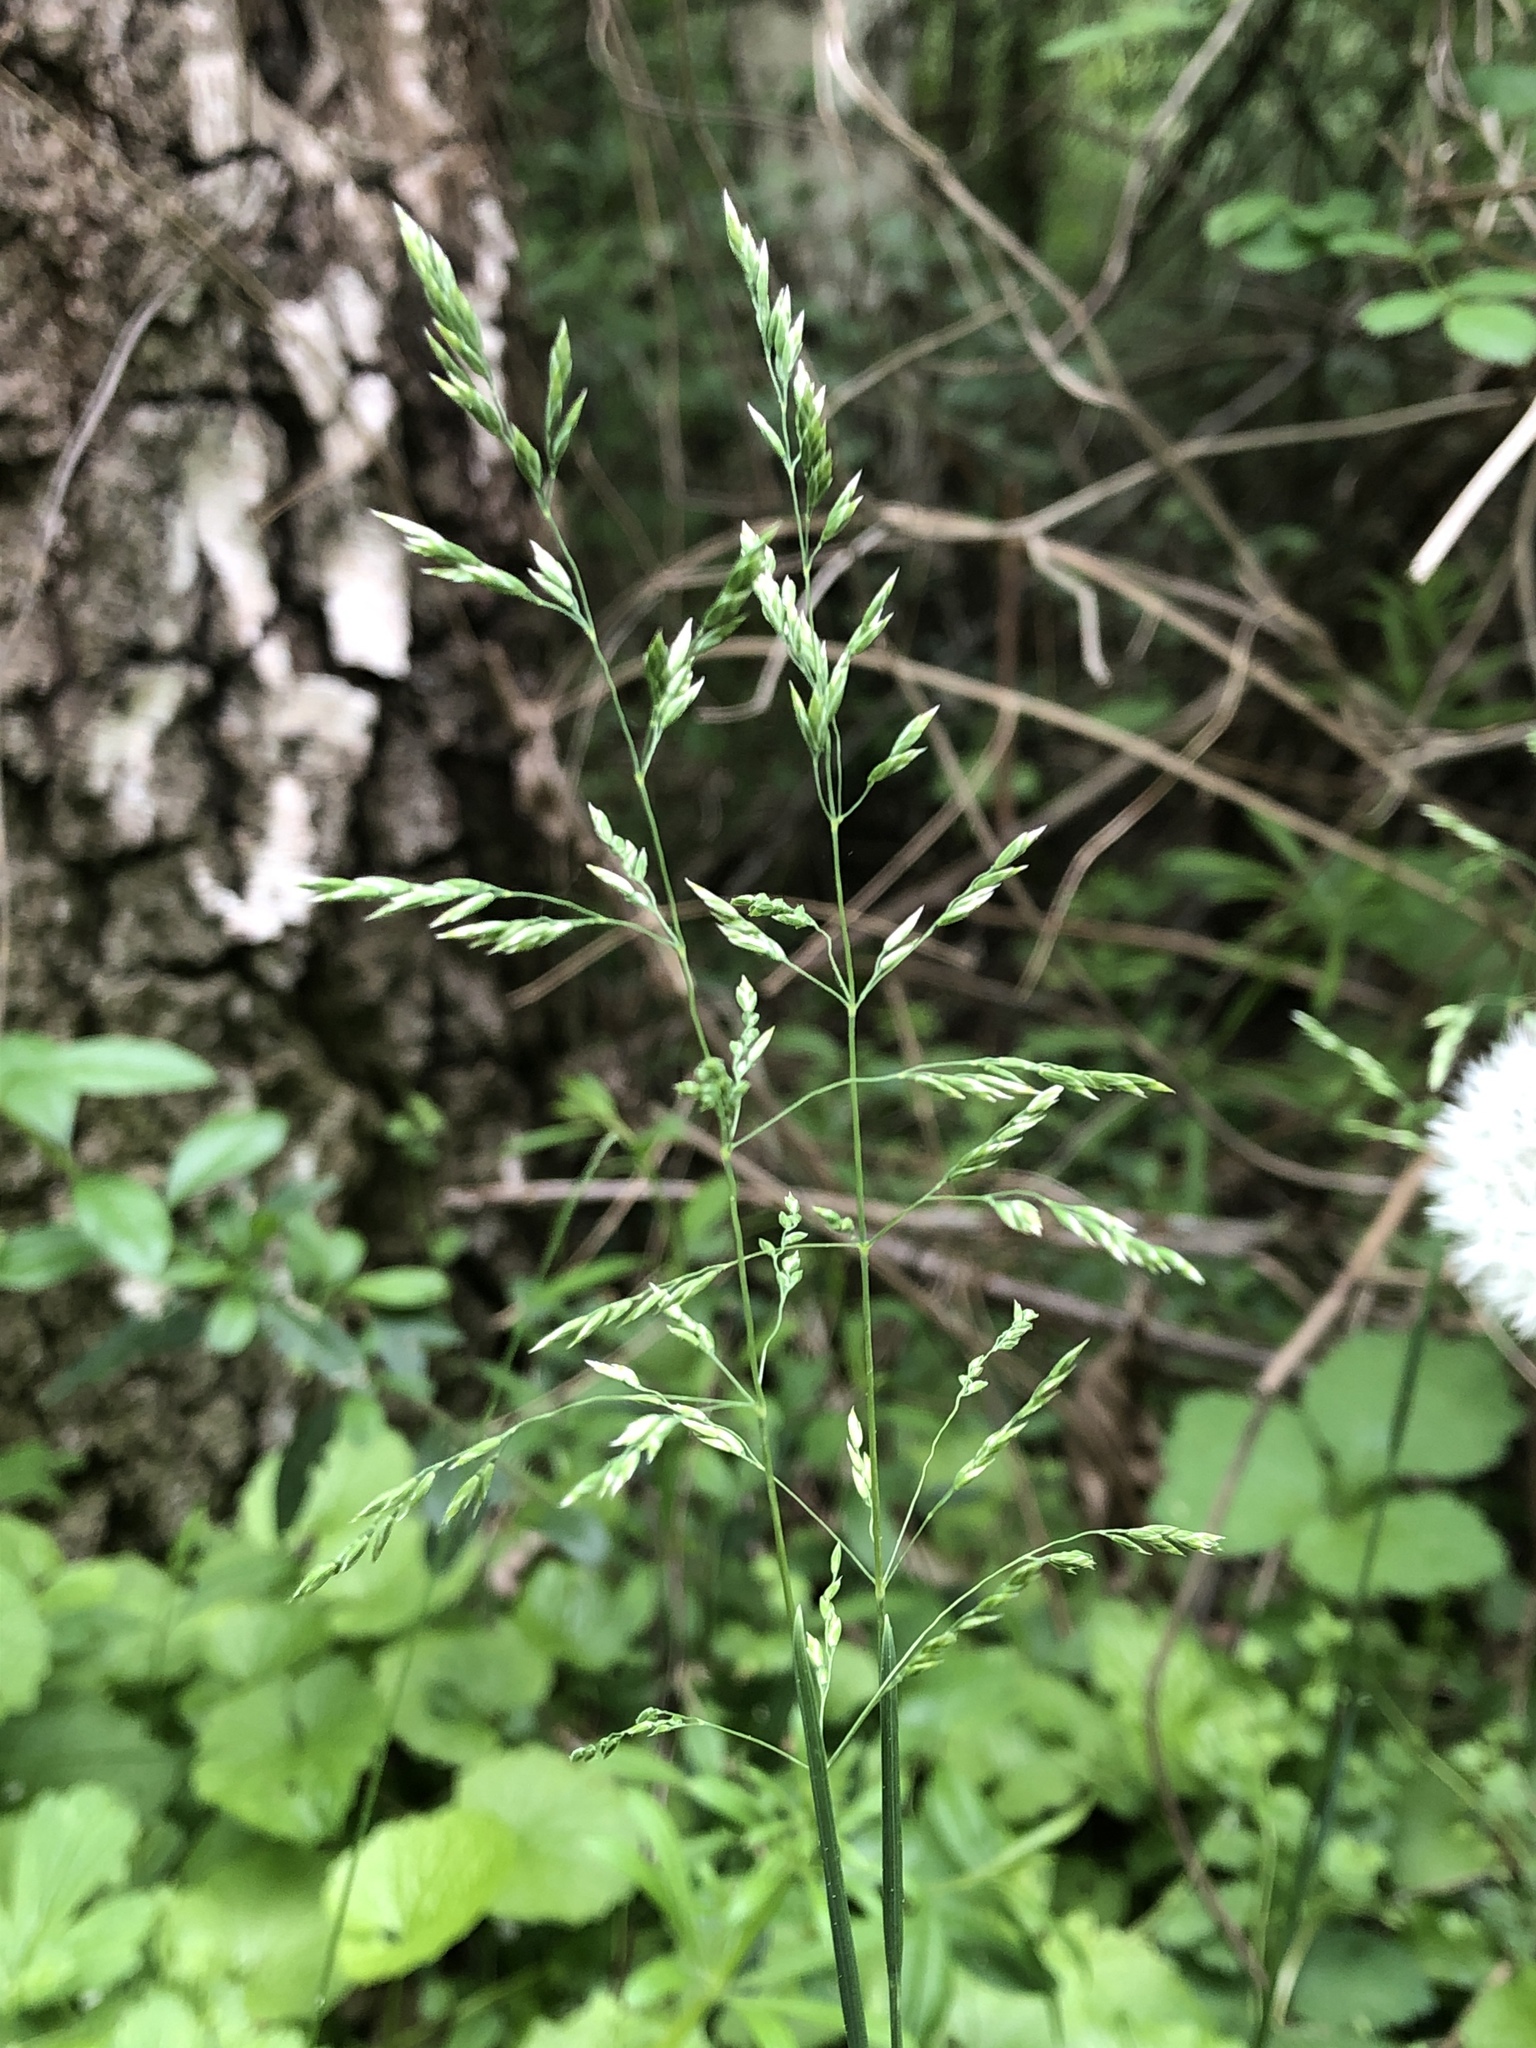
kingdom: Plantae
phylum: Tracheophyta
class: Liliopsida
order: Poales
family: Poaceae
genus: Poa
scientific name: Poa annua
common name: Annual bluegrass
